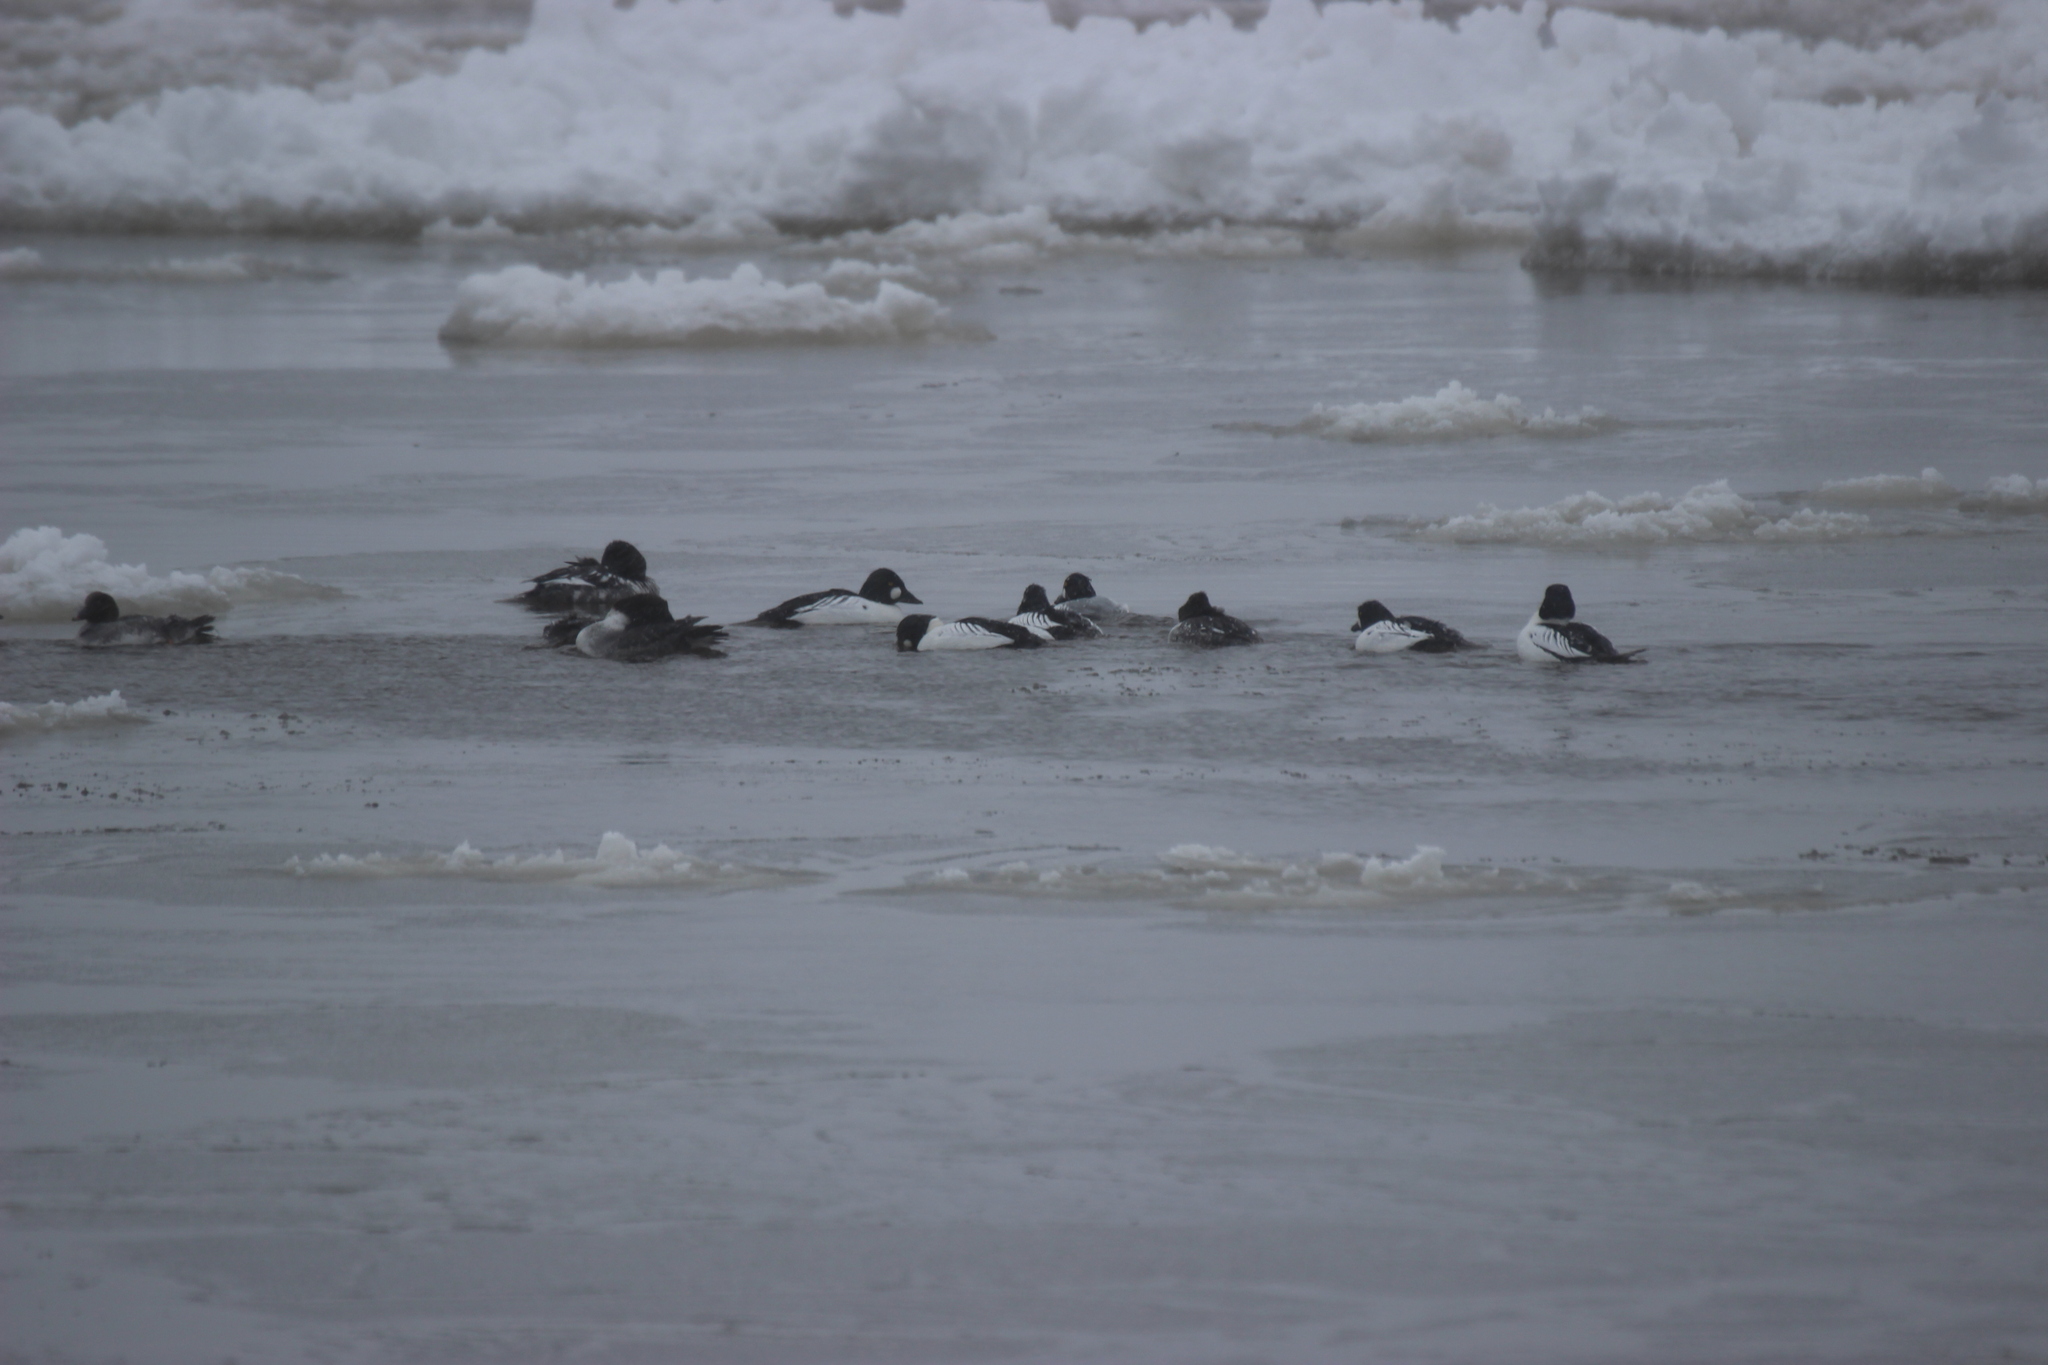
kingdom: Animalia
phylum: Chordata
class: Aves
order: Anseriformes
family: Anatidae
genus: Bucephala
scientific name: Bucephala clangula
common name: Common goldeneye
